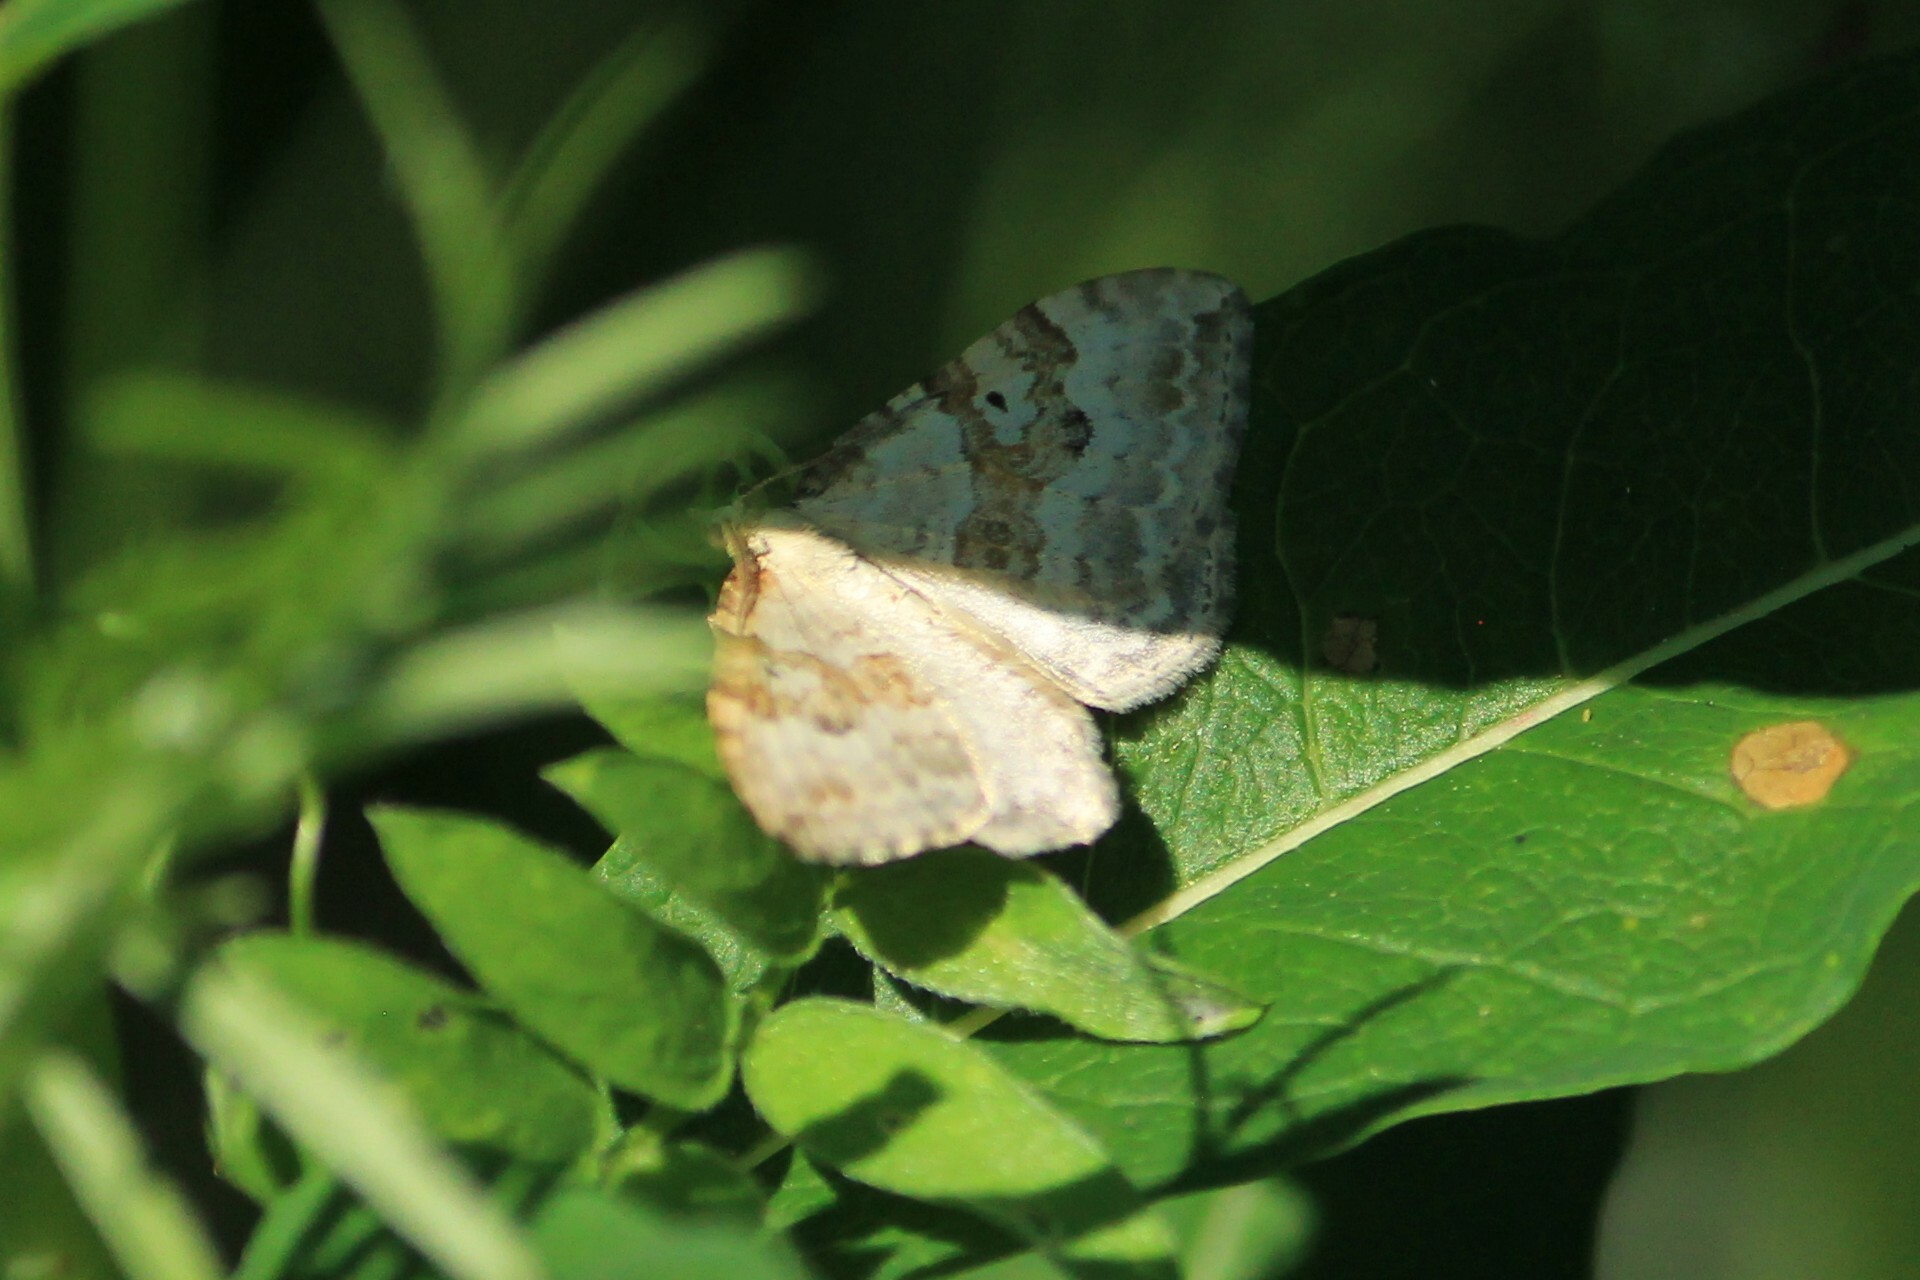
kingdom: Animalia
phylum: Arthropoda
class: Insecta
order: Lepidoptera
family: Geometridae
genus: Xanthorhoe
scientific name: Xanthorhoe montanata
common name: Silver-ground carpet
